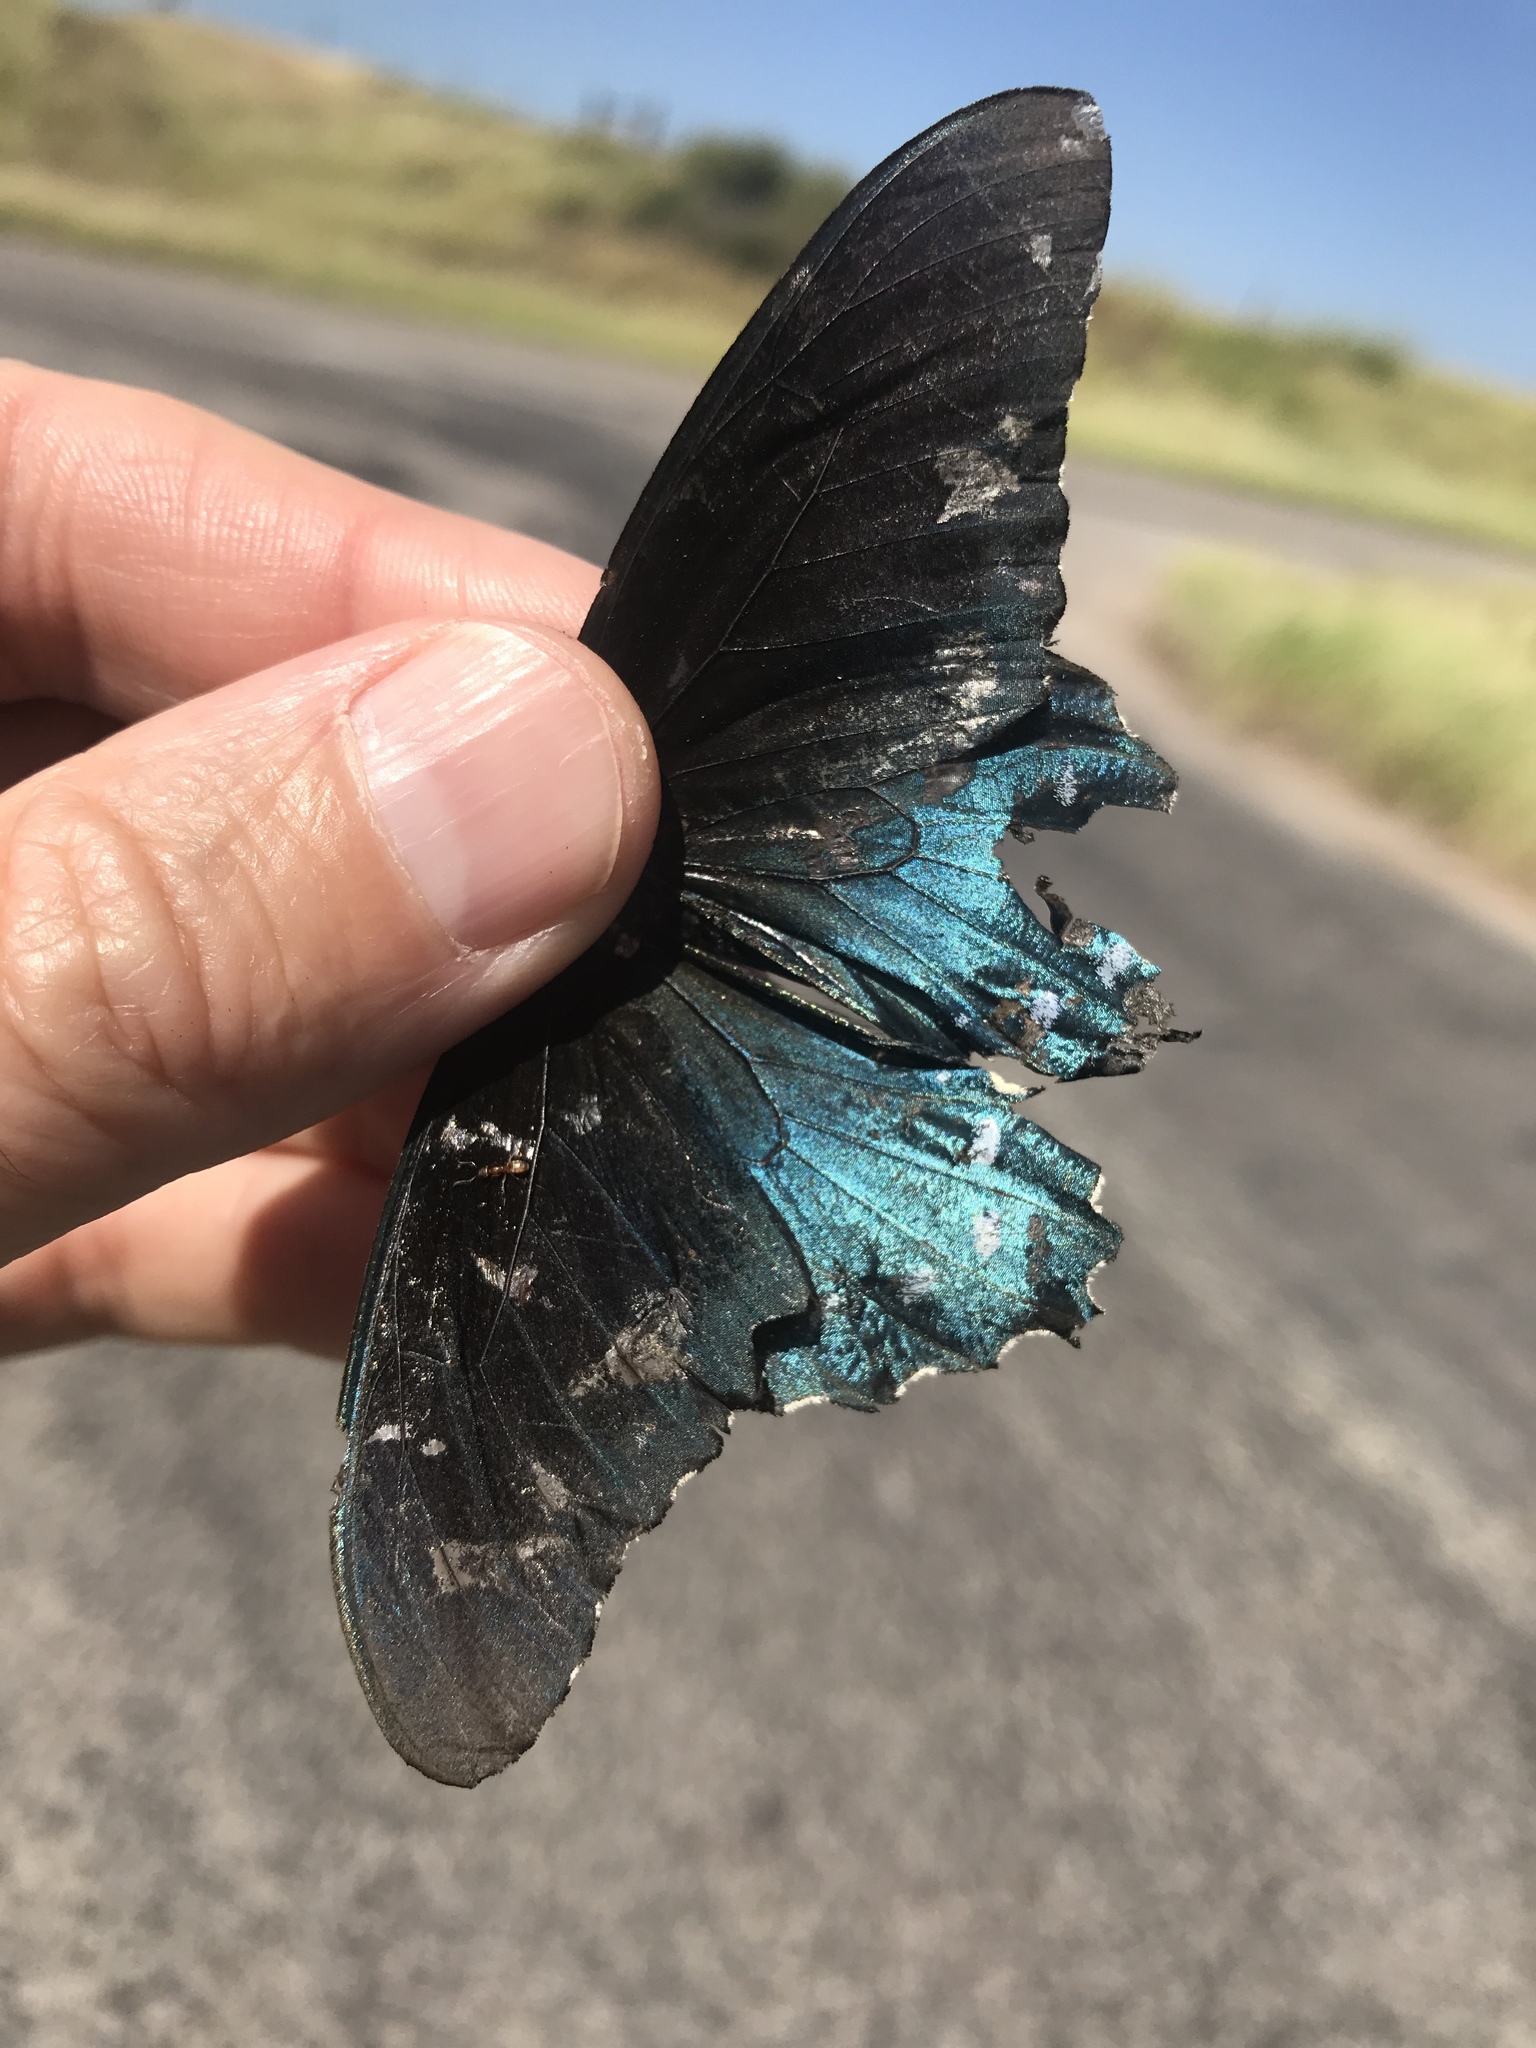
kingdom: Animalia
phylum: Arthropoda
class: Insecta
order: Lepidoptera
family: Papilionidae
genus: Battus
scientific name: Battus philenor
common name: Pipevine swallowtail
